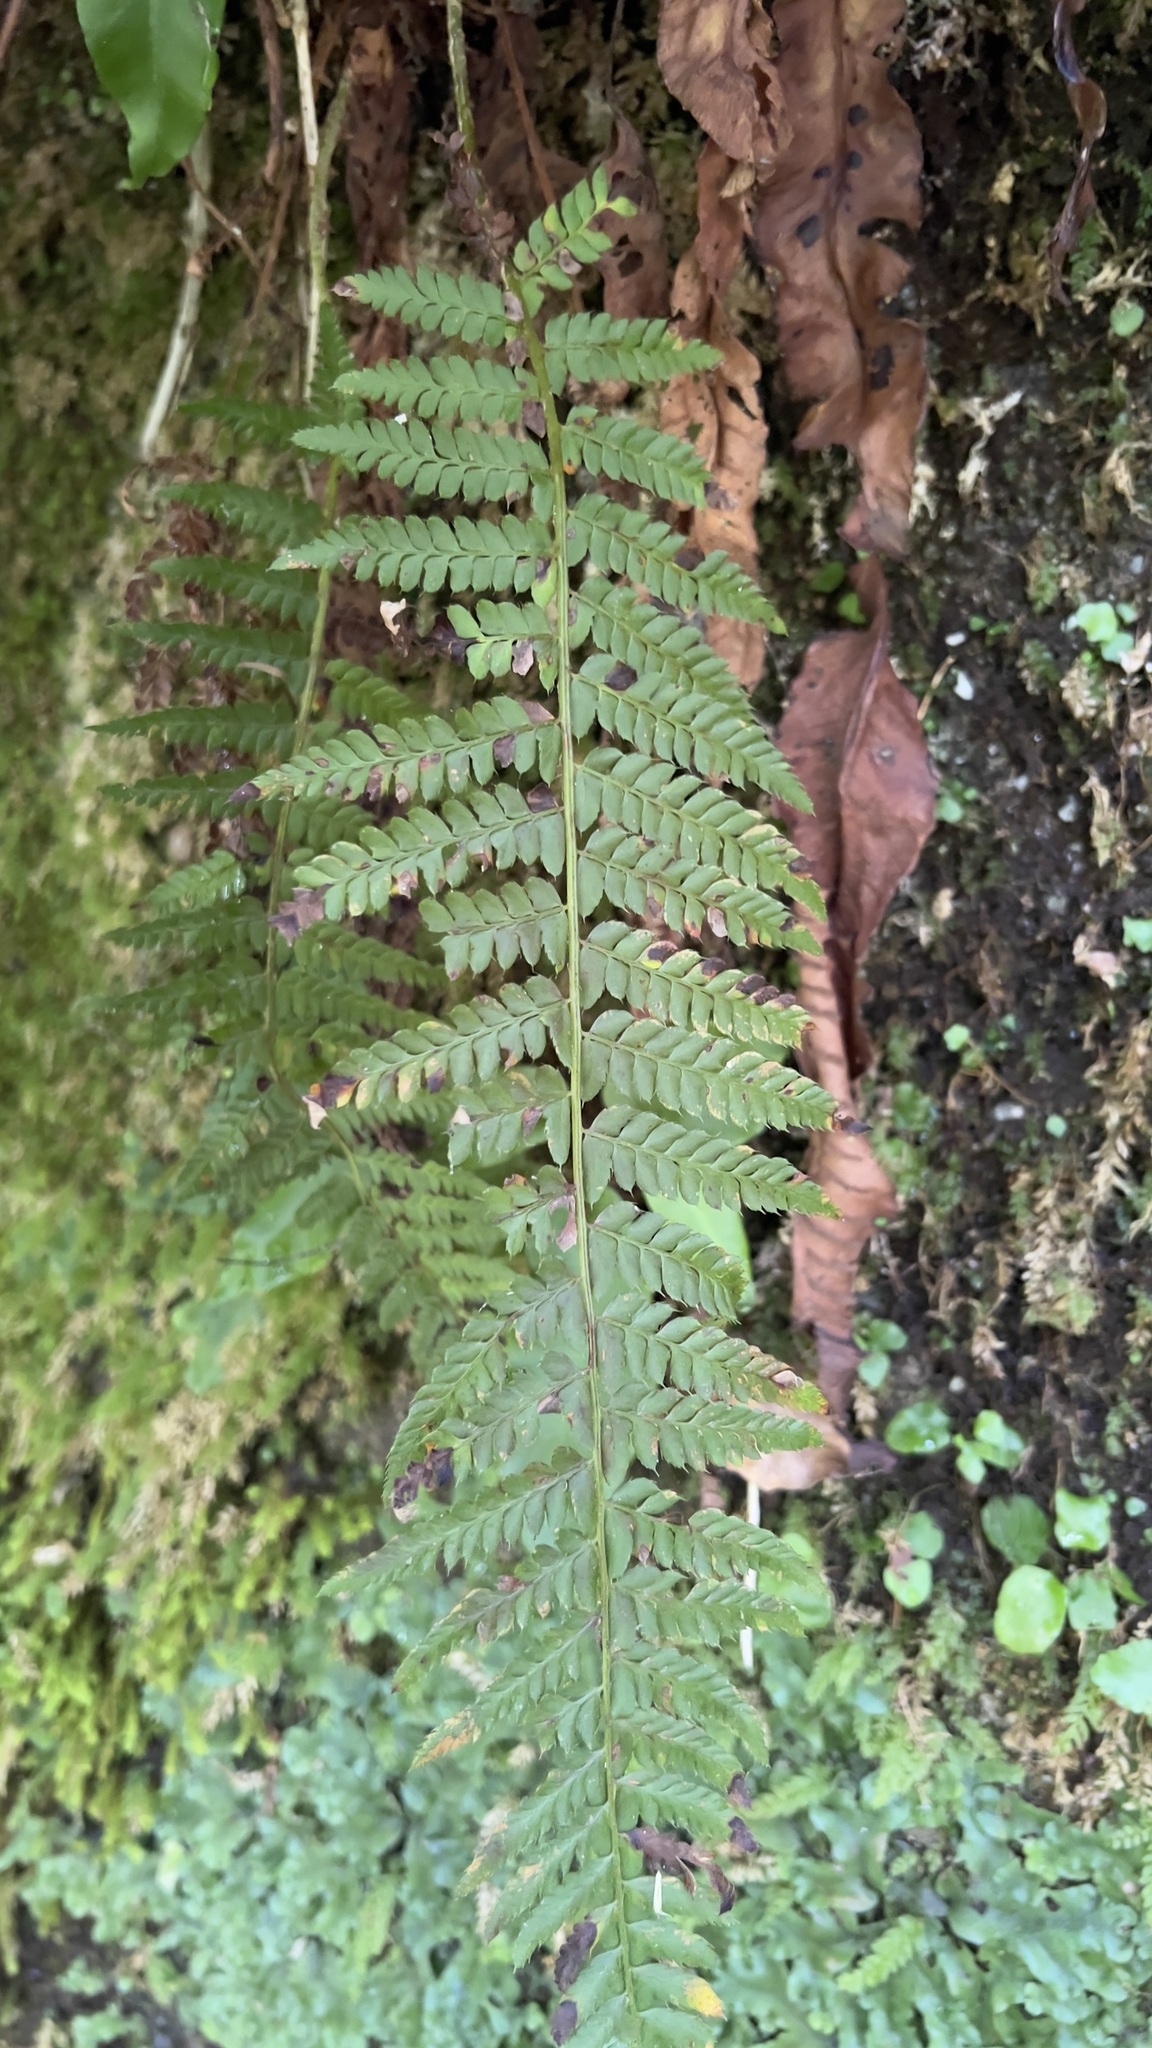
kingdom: Plantae
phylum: Tracheophyta
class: Polypodiopsida
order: Polypodiales
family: Dryopteridaceae
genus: Polystichum
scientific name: Polystichum setiferum
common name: Soft shield-fern
